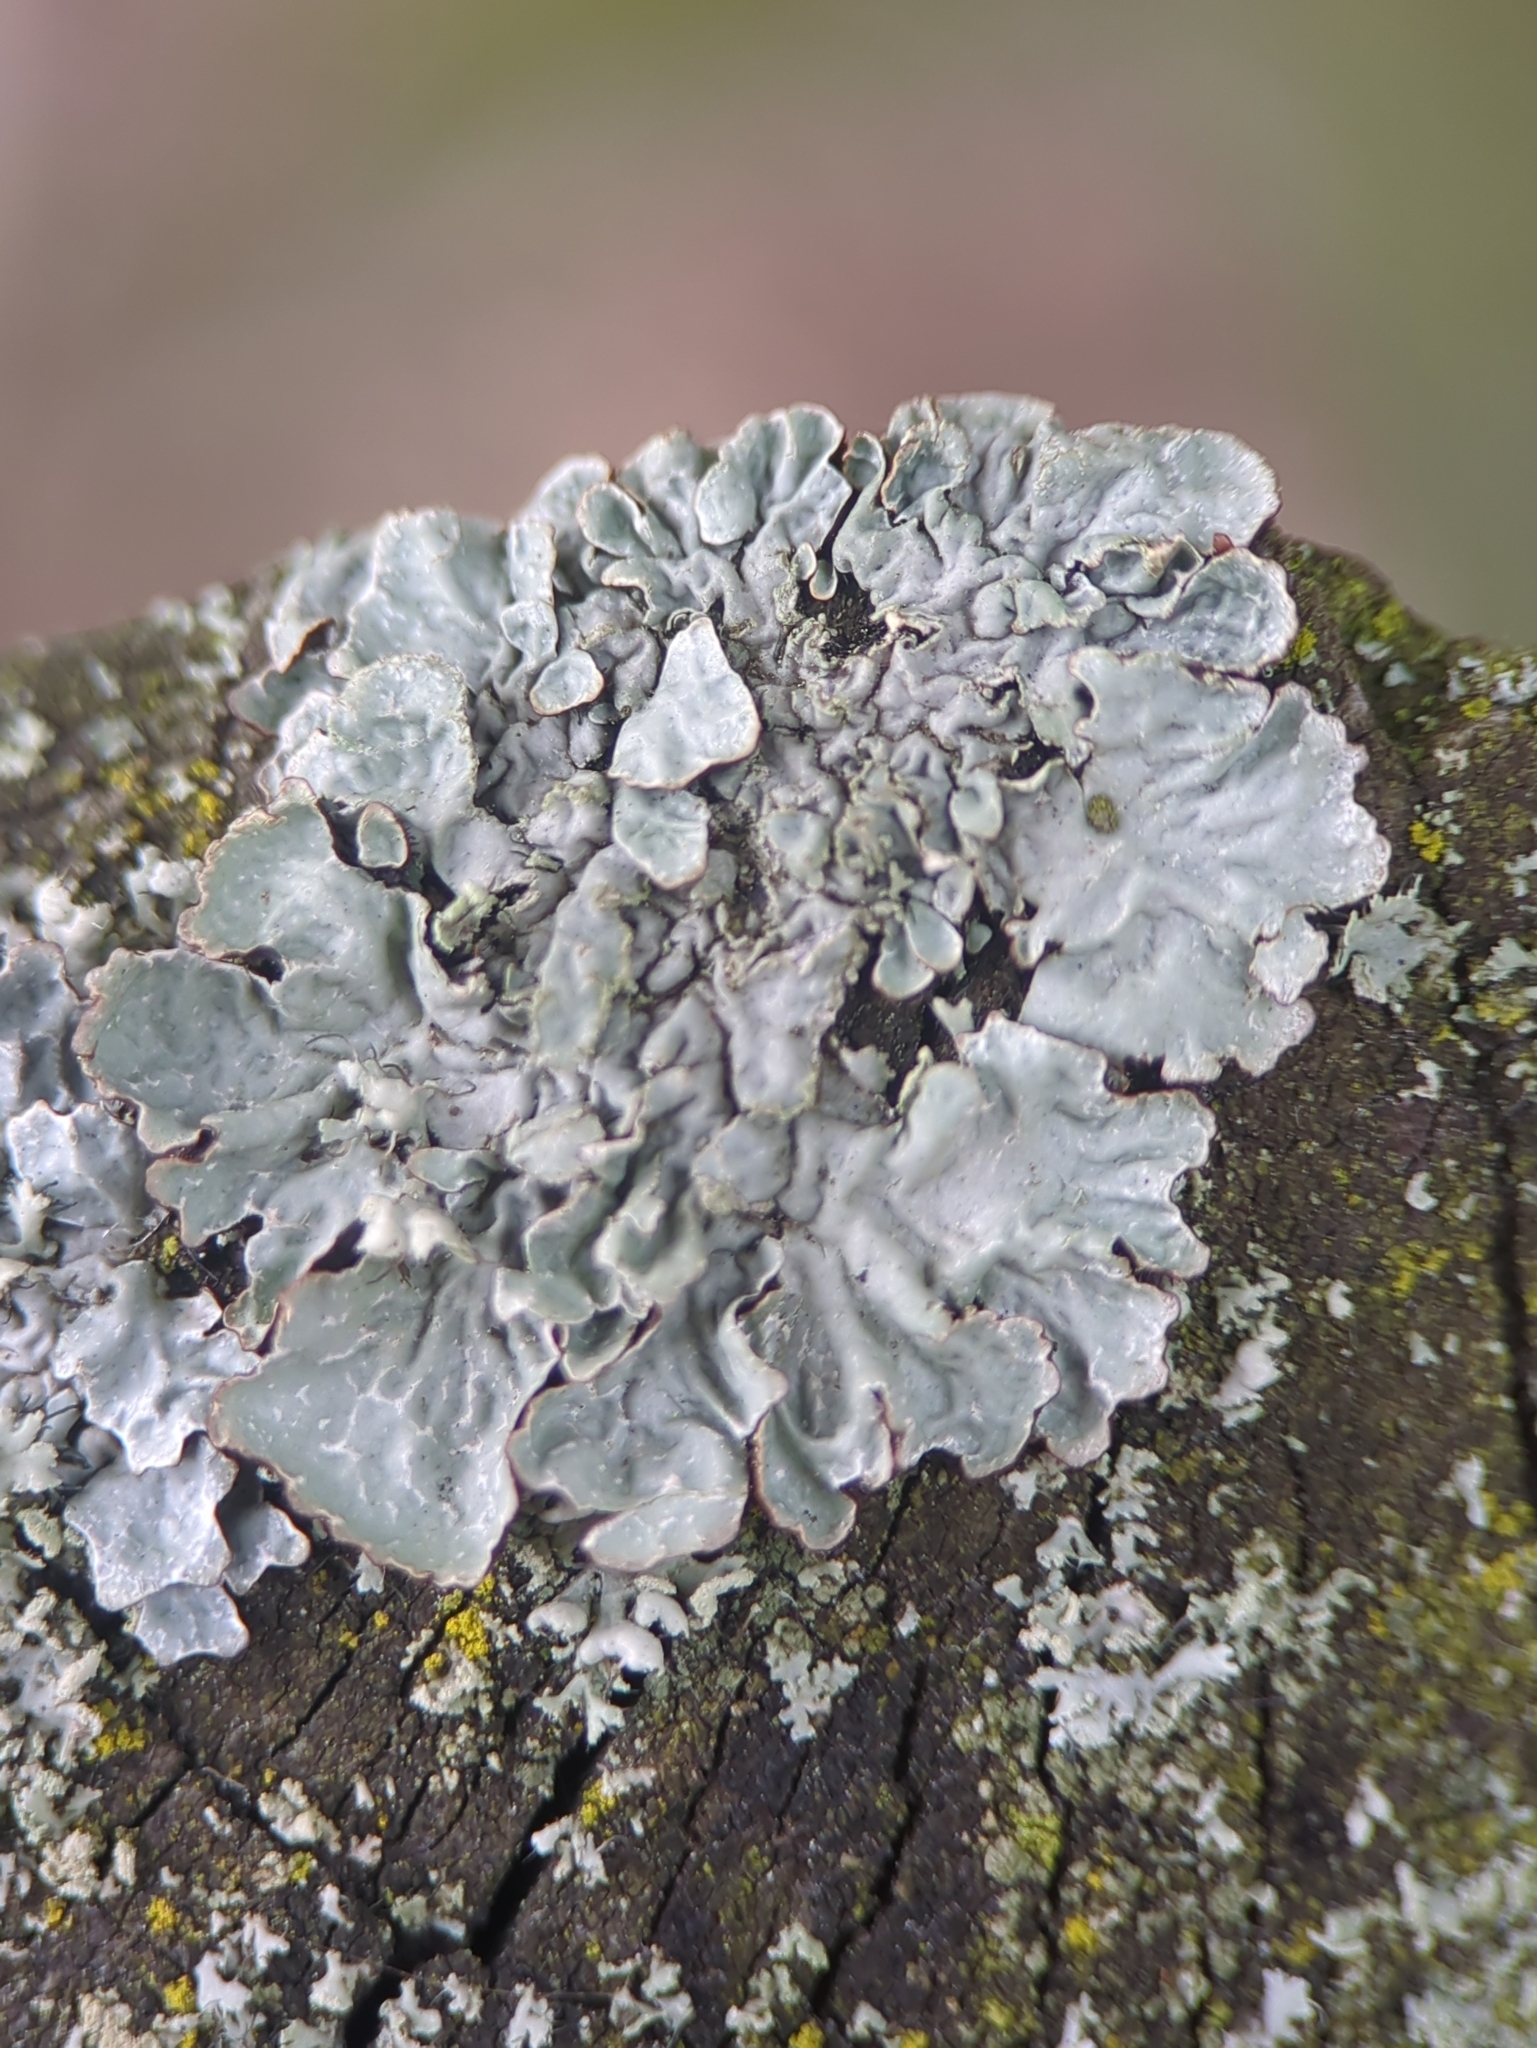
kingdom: Fungi
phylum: Ascomycota
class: Lecanoromycetes
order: Lecanorales
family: Parmeliaceae
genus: Parmelia
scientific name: Parmelia sulcata
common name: Netted shield lichen
